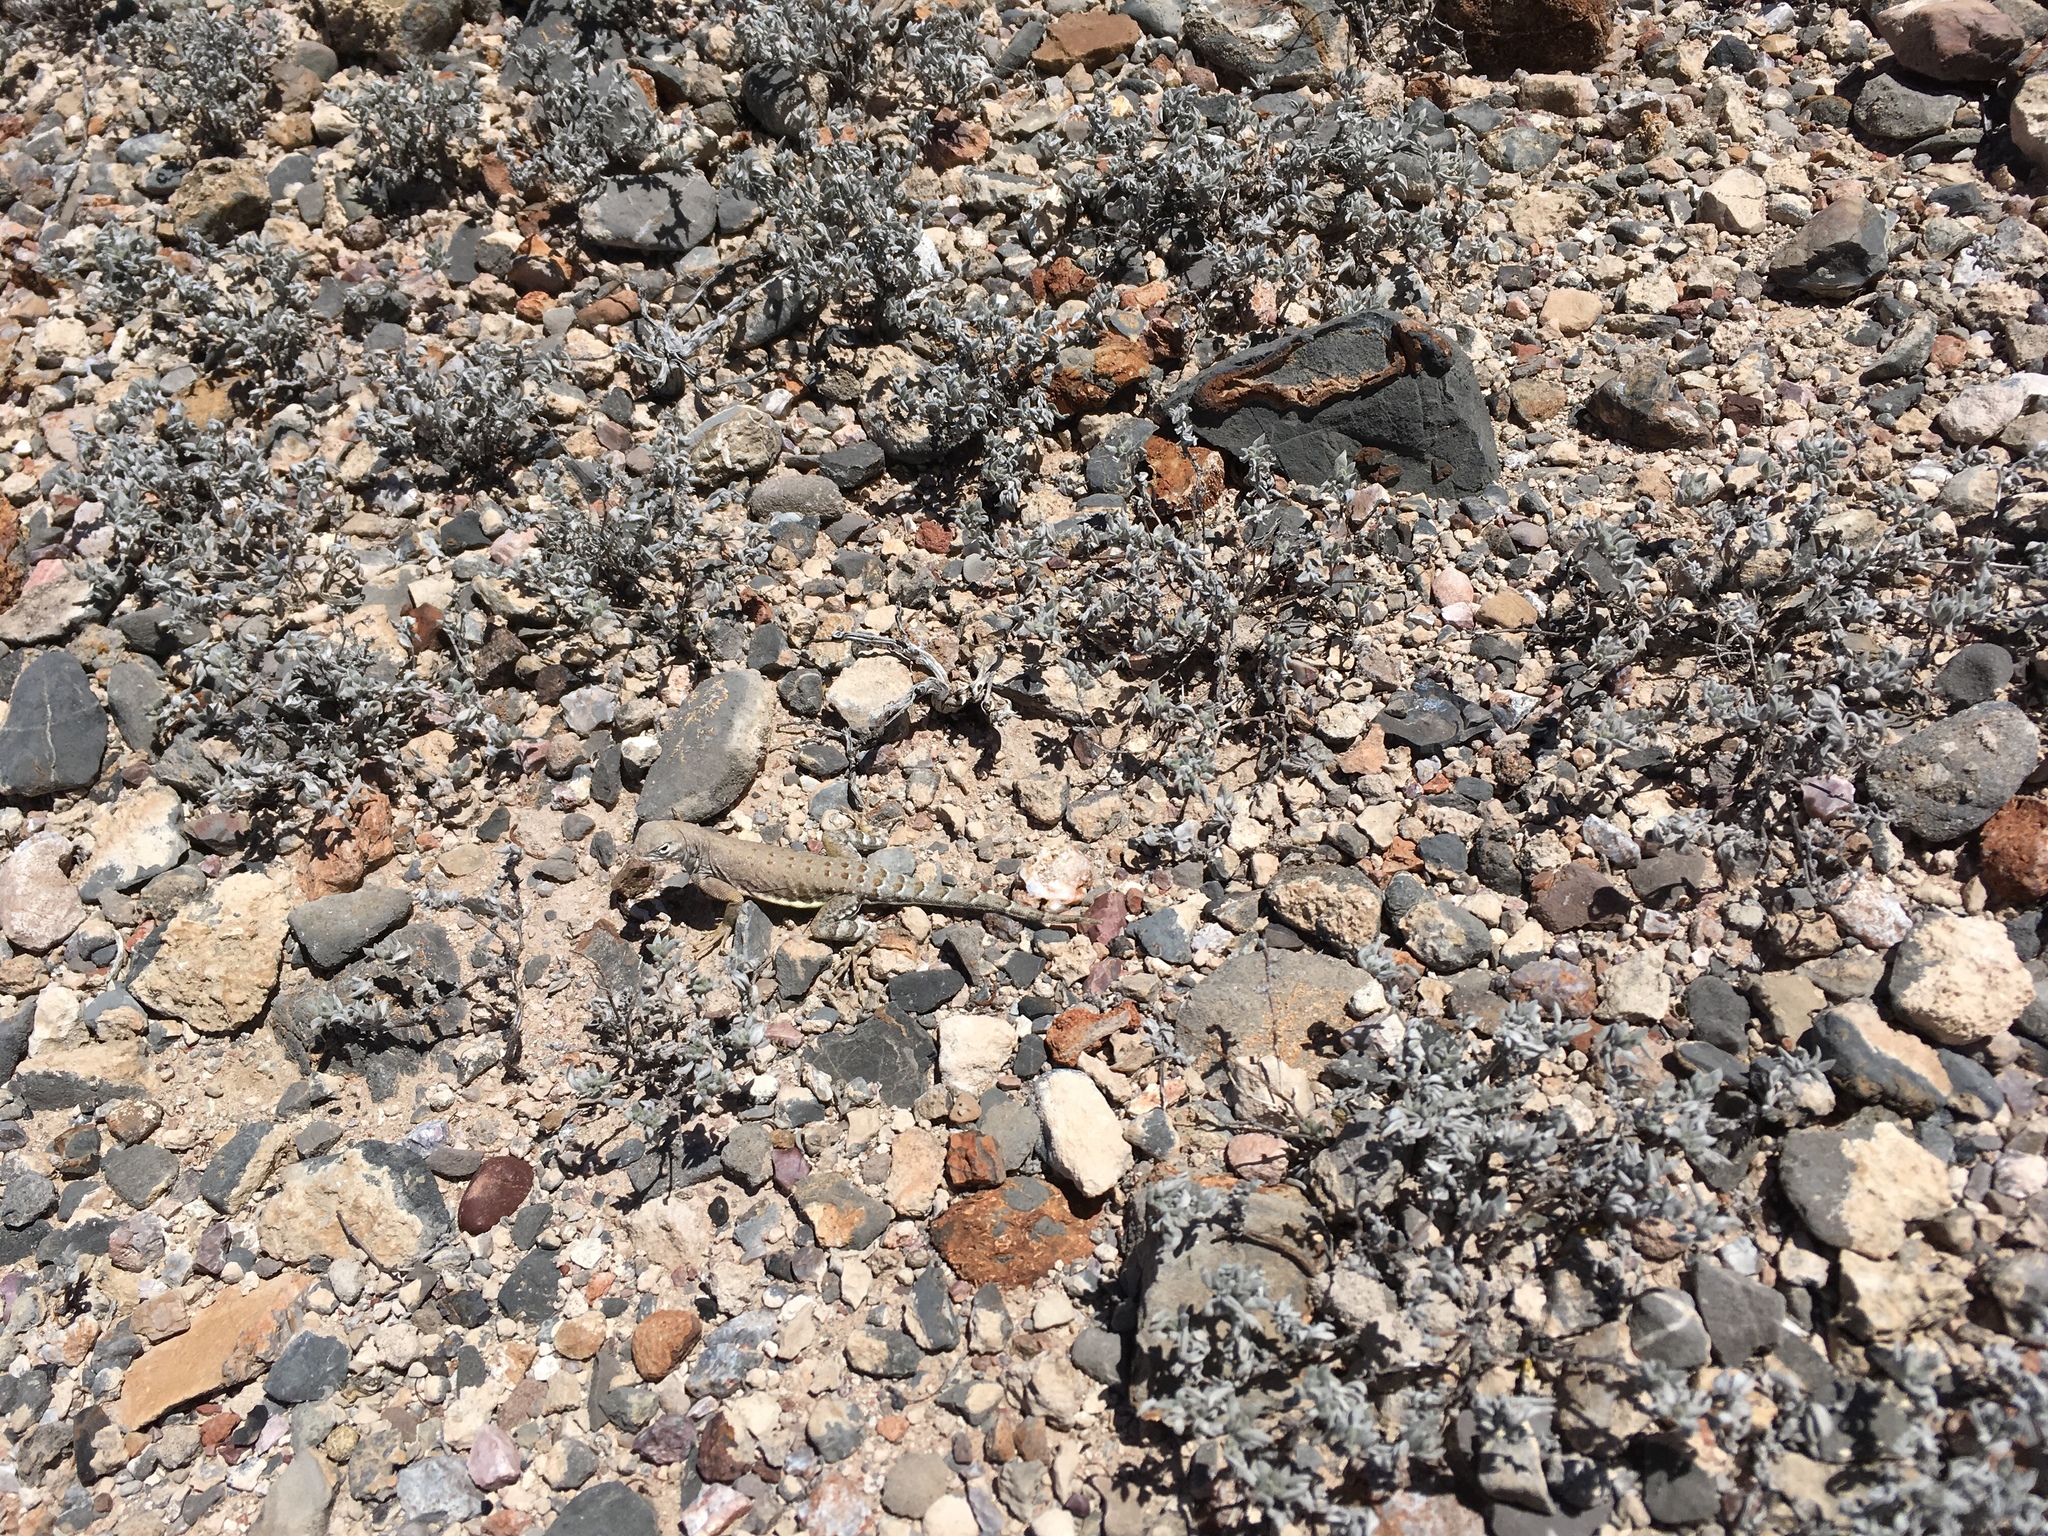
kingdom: Animalia
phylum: Chordata
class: Squamata
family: Phrynosomatidae
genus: Cophosaurus
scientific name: Cophosaurus texanus
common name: Greater earless lizard
